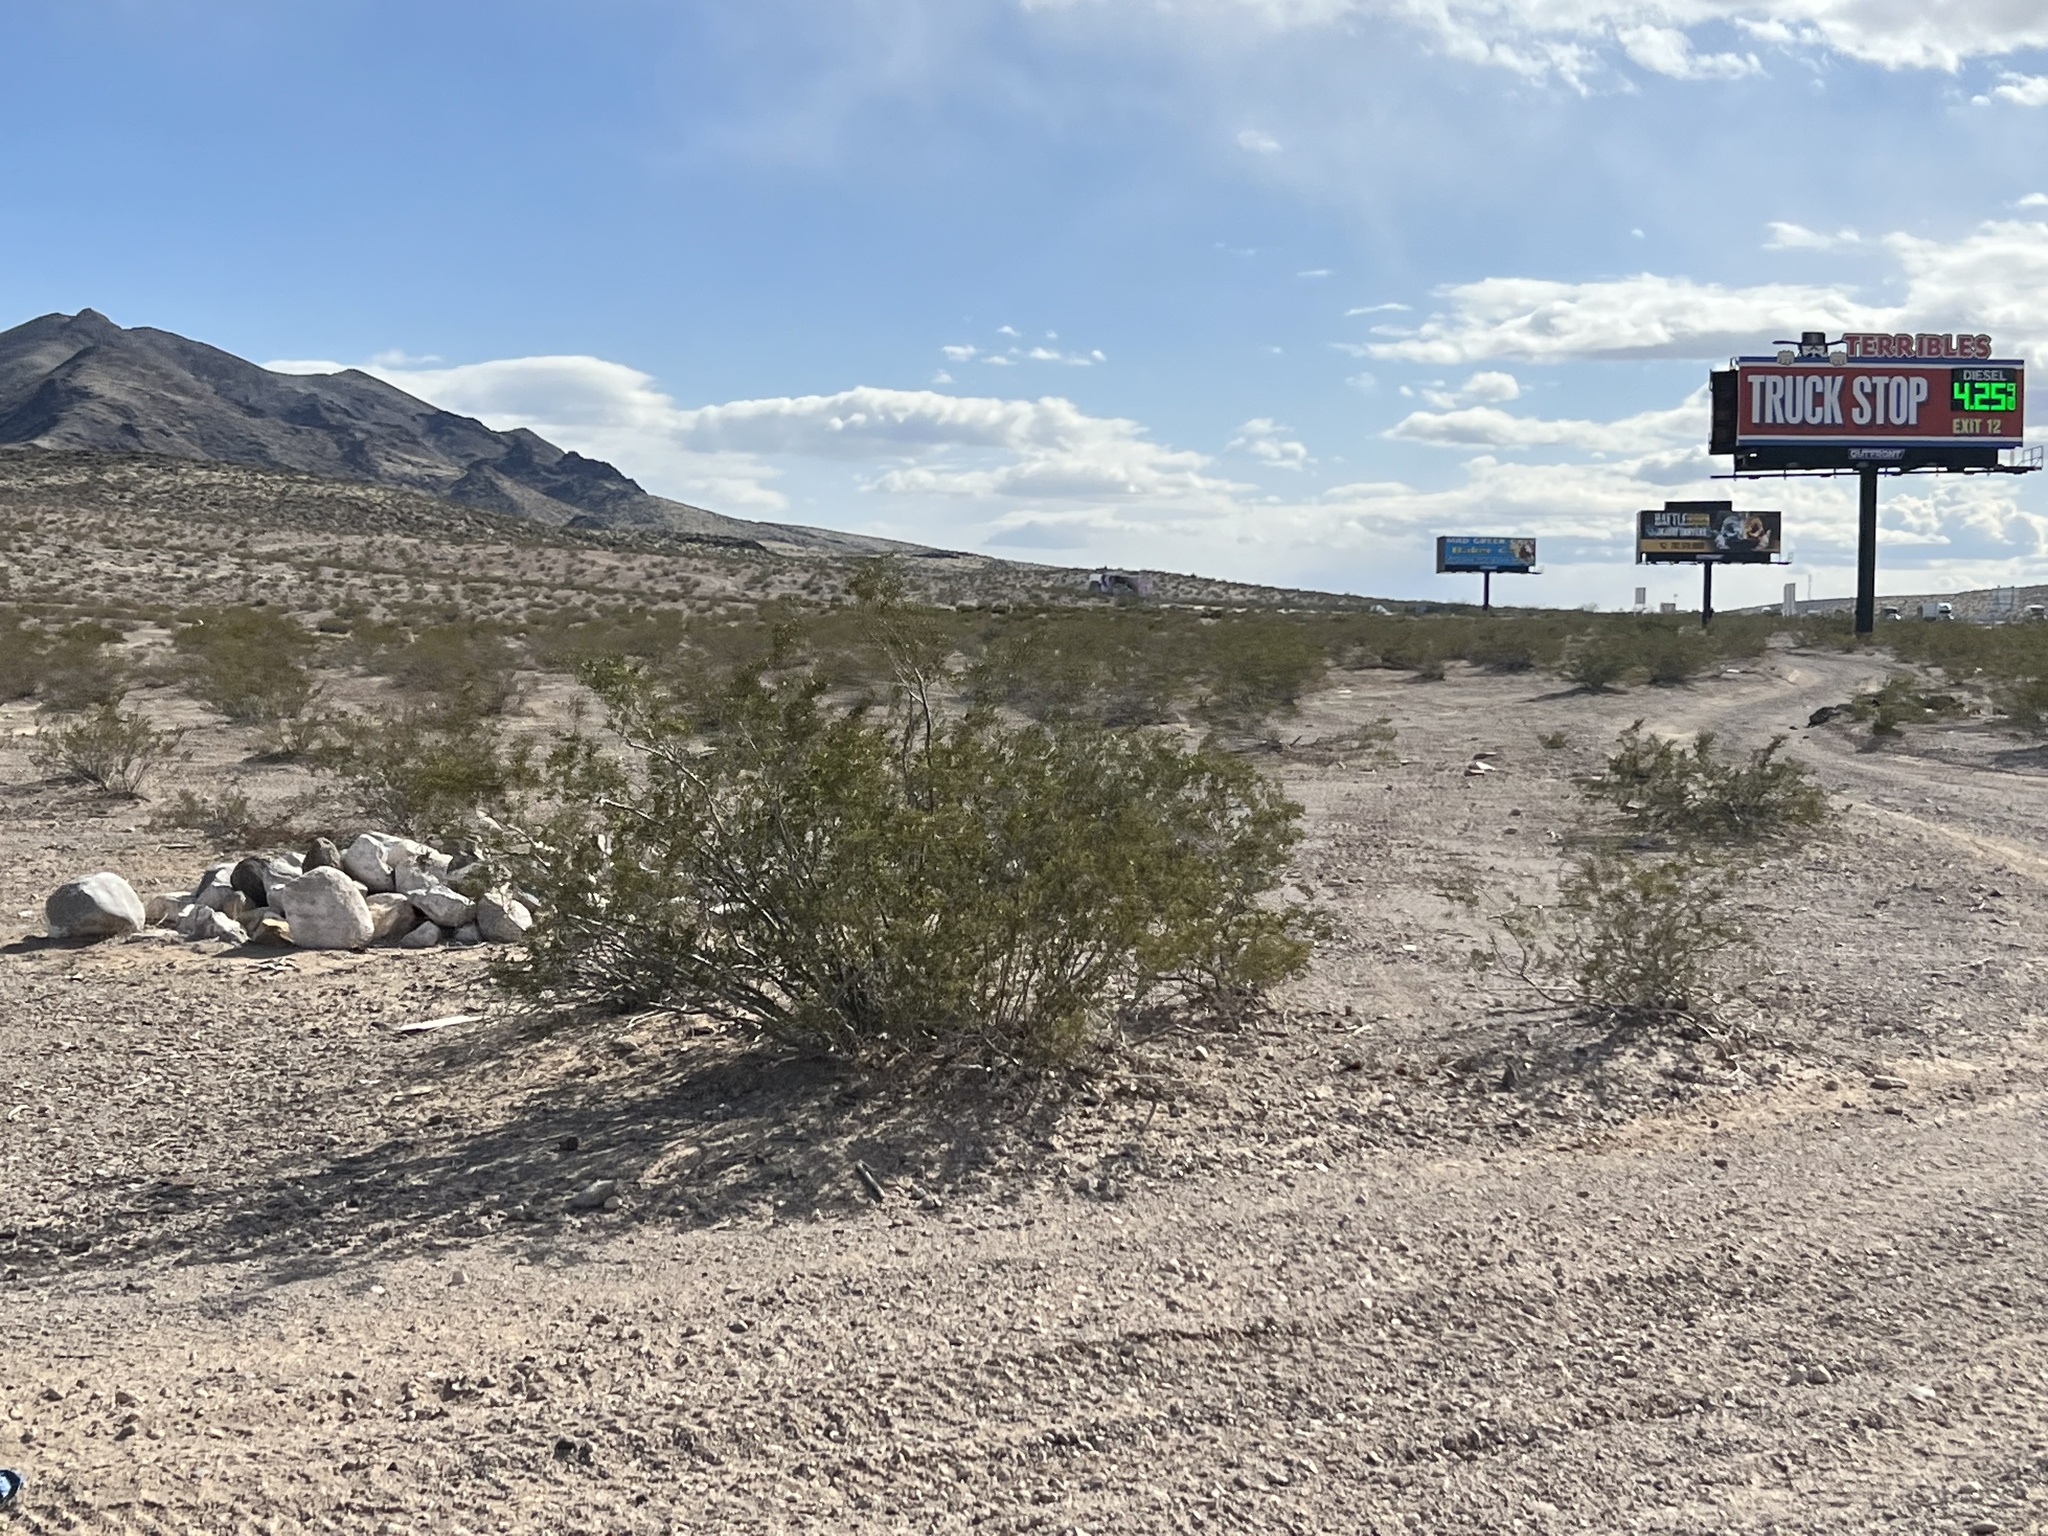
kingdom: Plantae
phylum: Tracheophyta
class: Magnoliopsida
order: Zygophyllales
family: Zygophyllaceae
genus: Larrea
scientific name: Larrea tridentata
